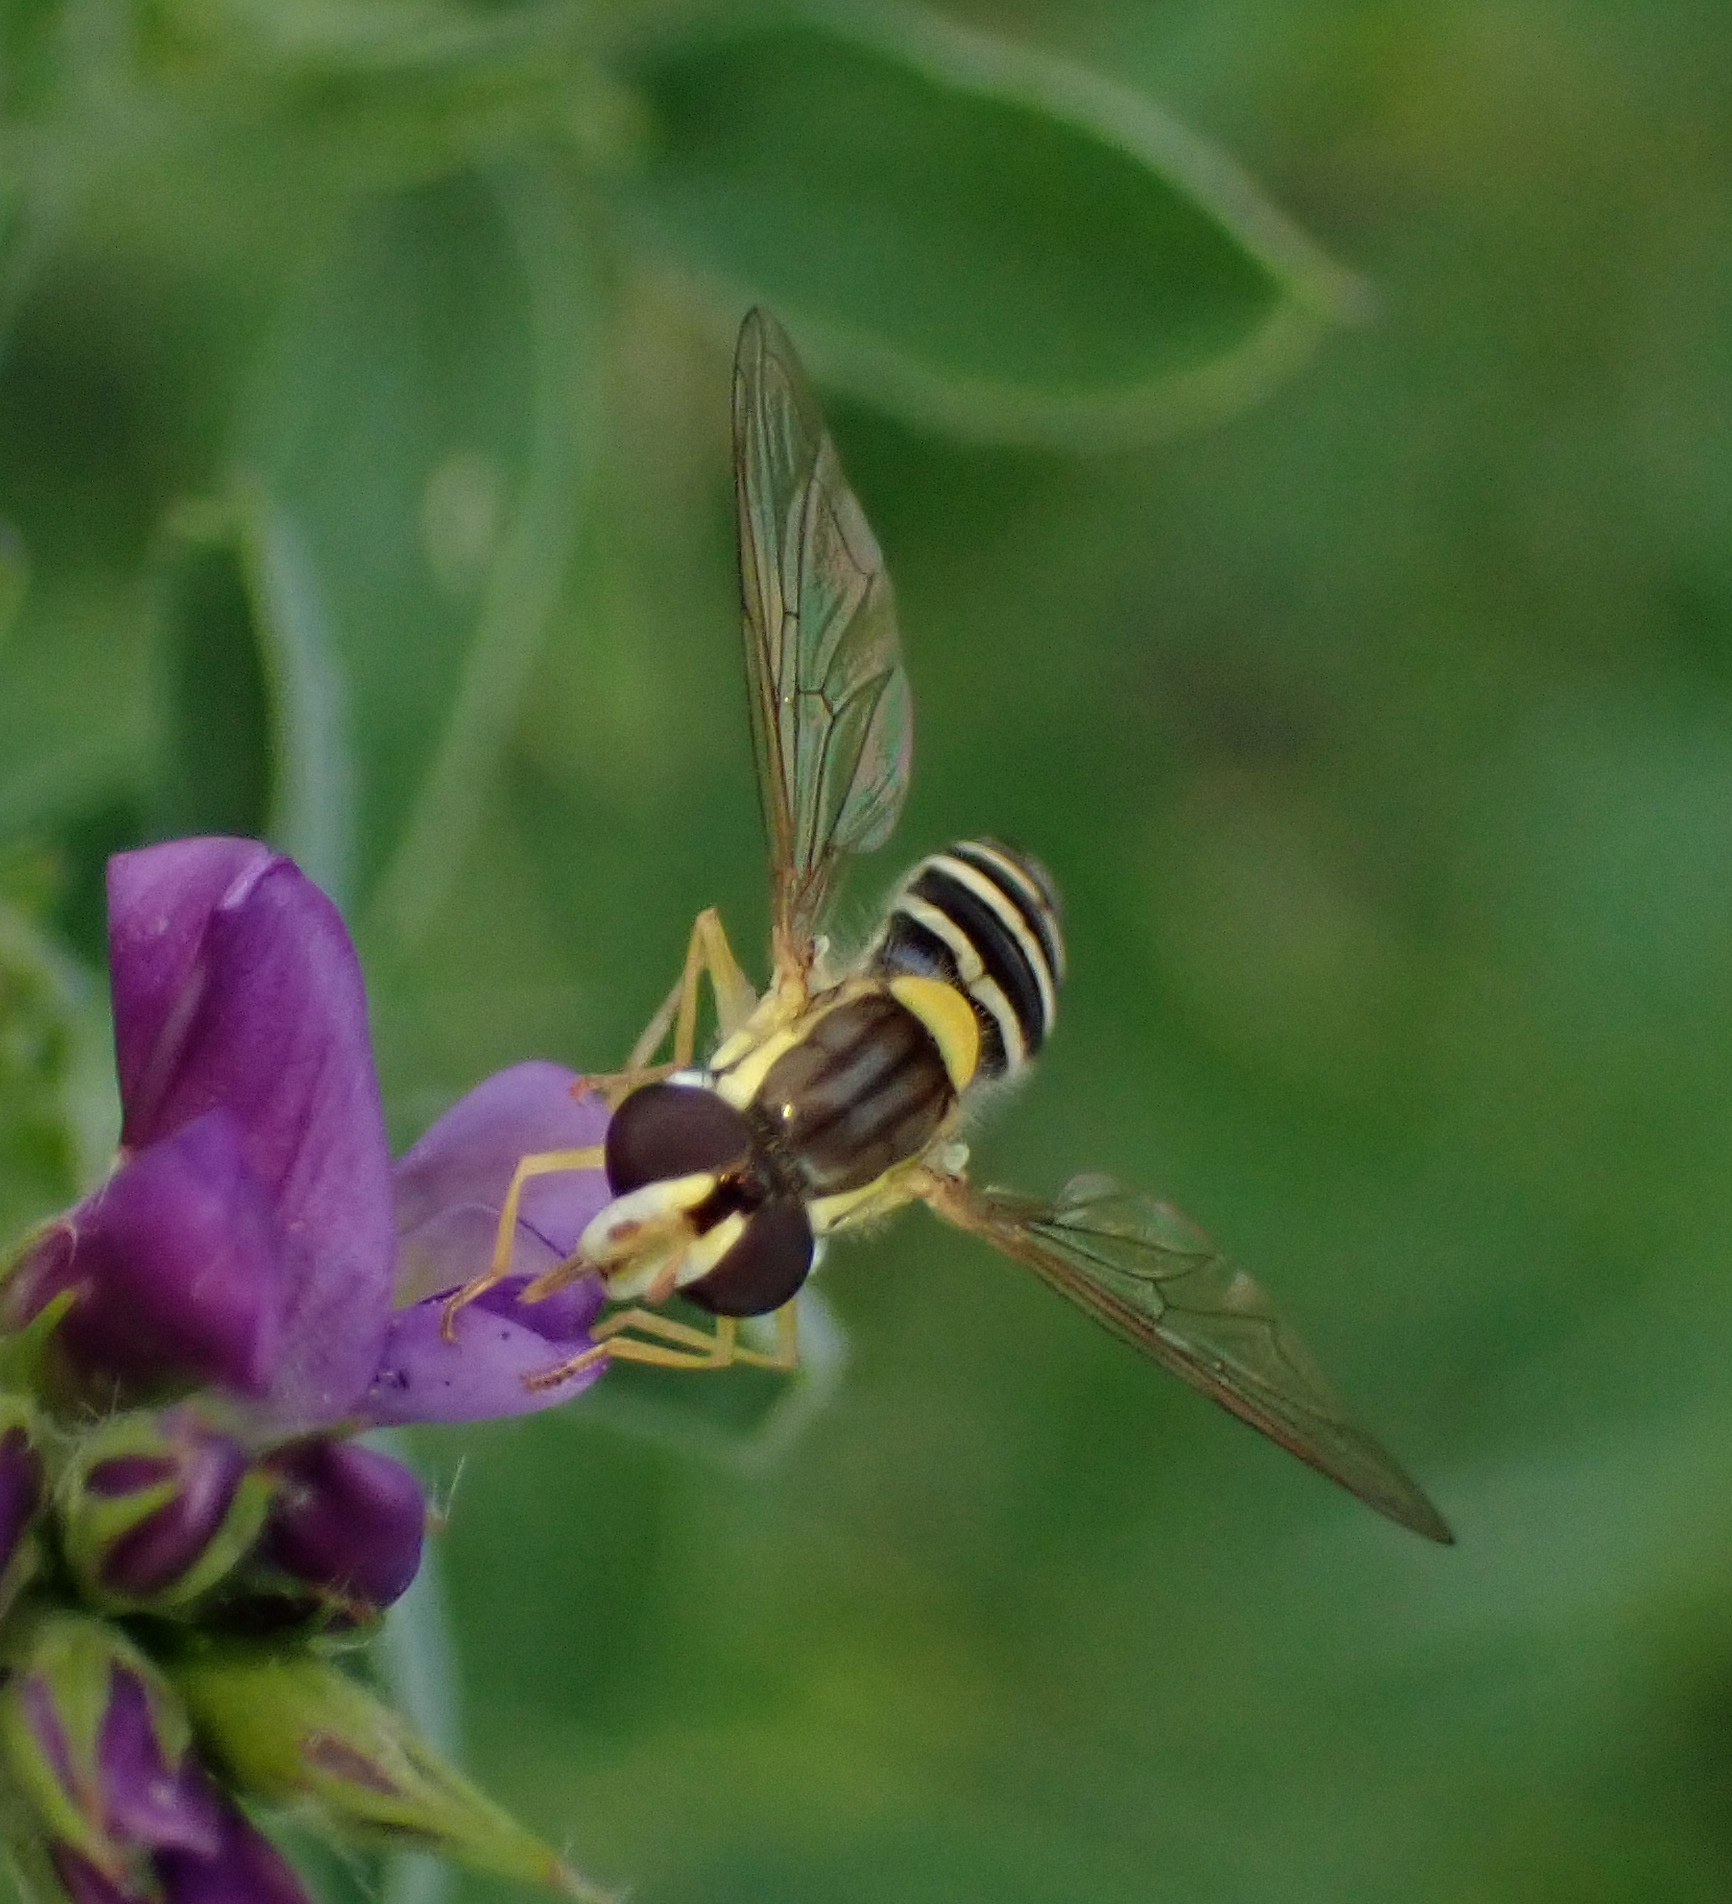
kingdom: Animalia
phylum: Arthropoda
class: Insecta
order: Diptera
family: Syrphidae
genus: Sphaerophoria
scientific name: Sphaerophoria
